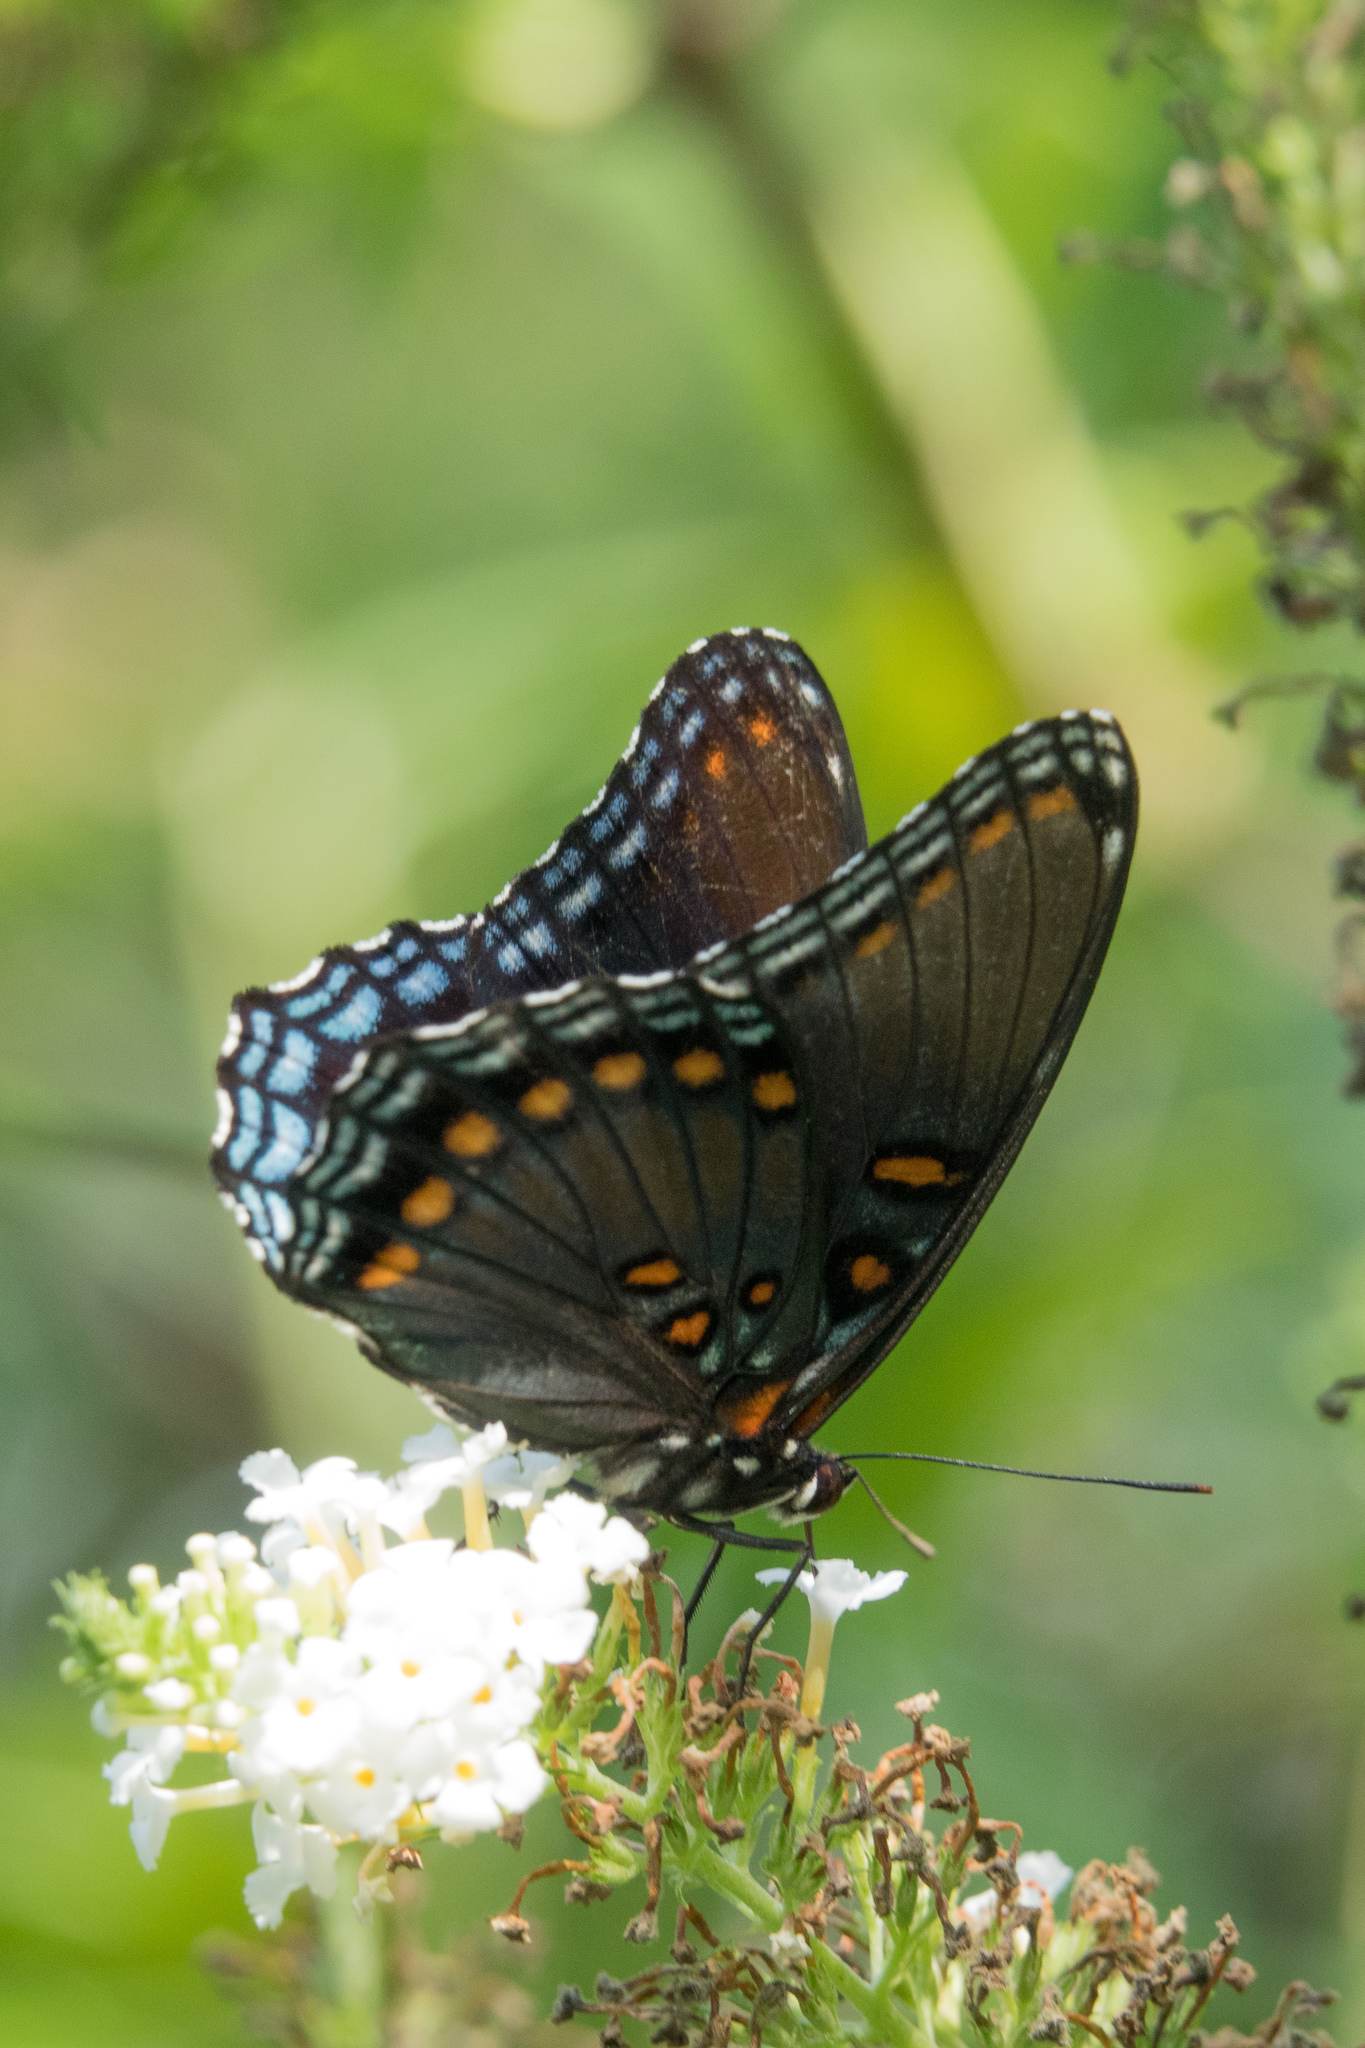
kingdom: Animalia
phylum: Arthropoda
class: Insecta
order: Lepidoptera
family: Nymphalidae
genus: Limenitis
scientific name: Limenitis astyanax
